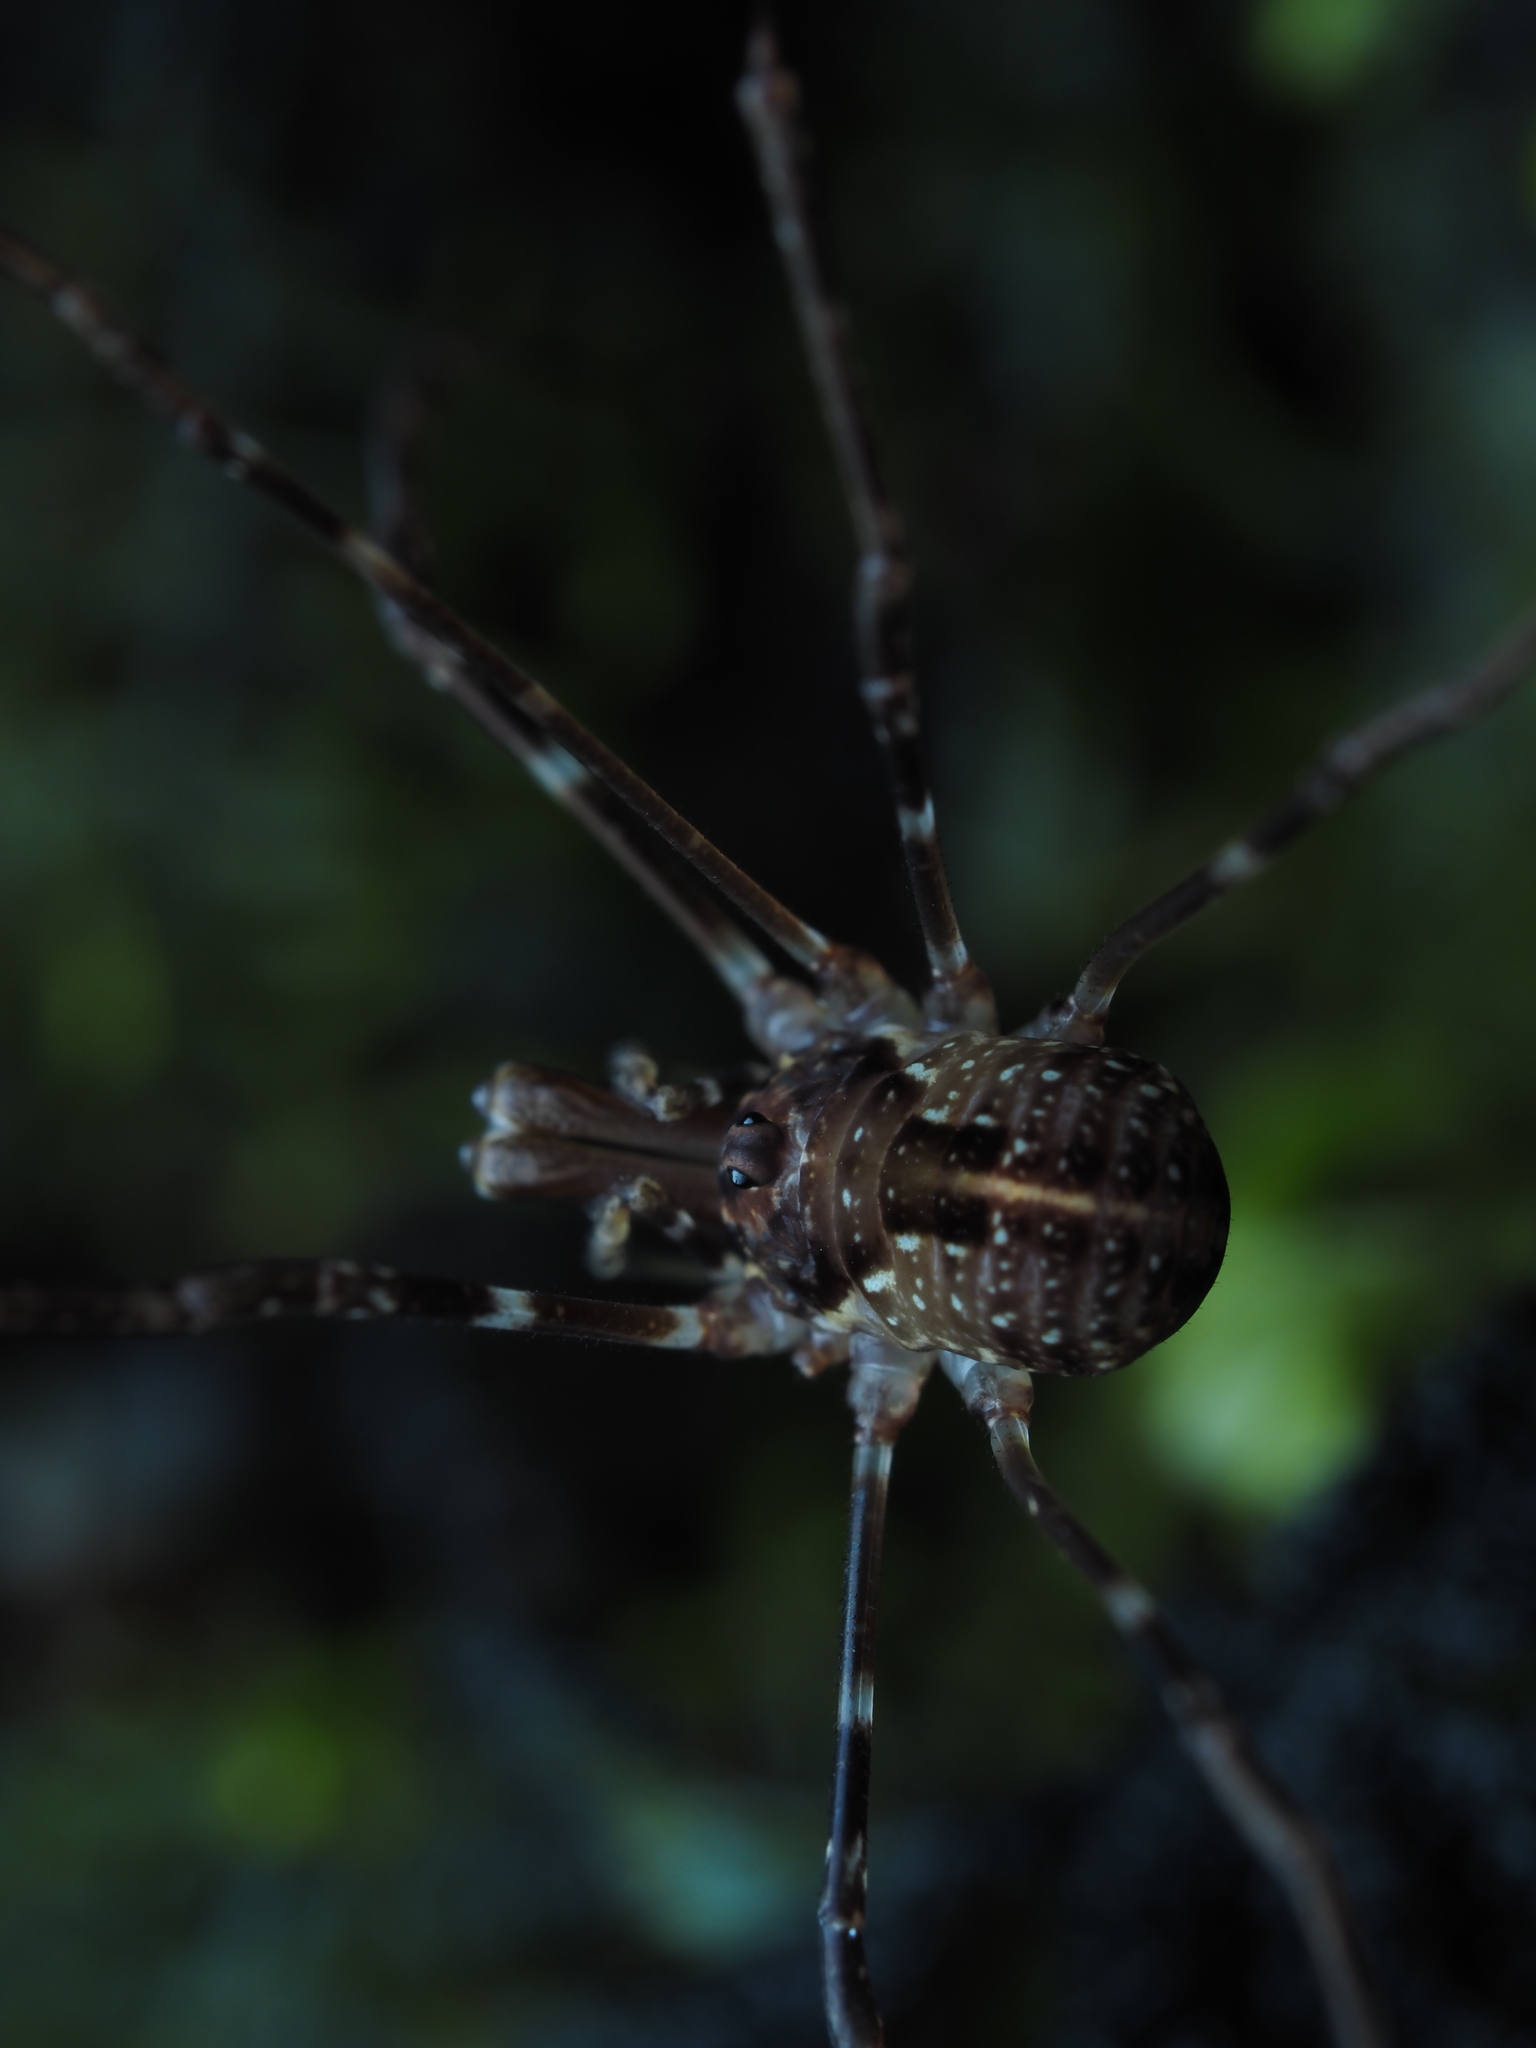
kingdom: Animalia
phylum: Arthropoda
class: Arachnida
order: Opiliones
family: Neopilionidae
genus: Forsteropsalis
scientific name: Forsteropsalis pureora
